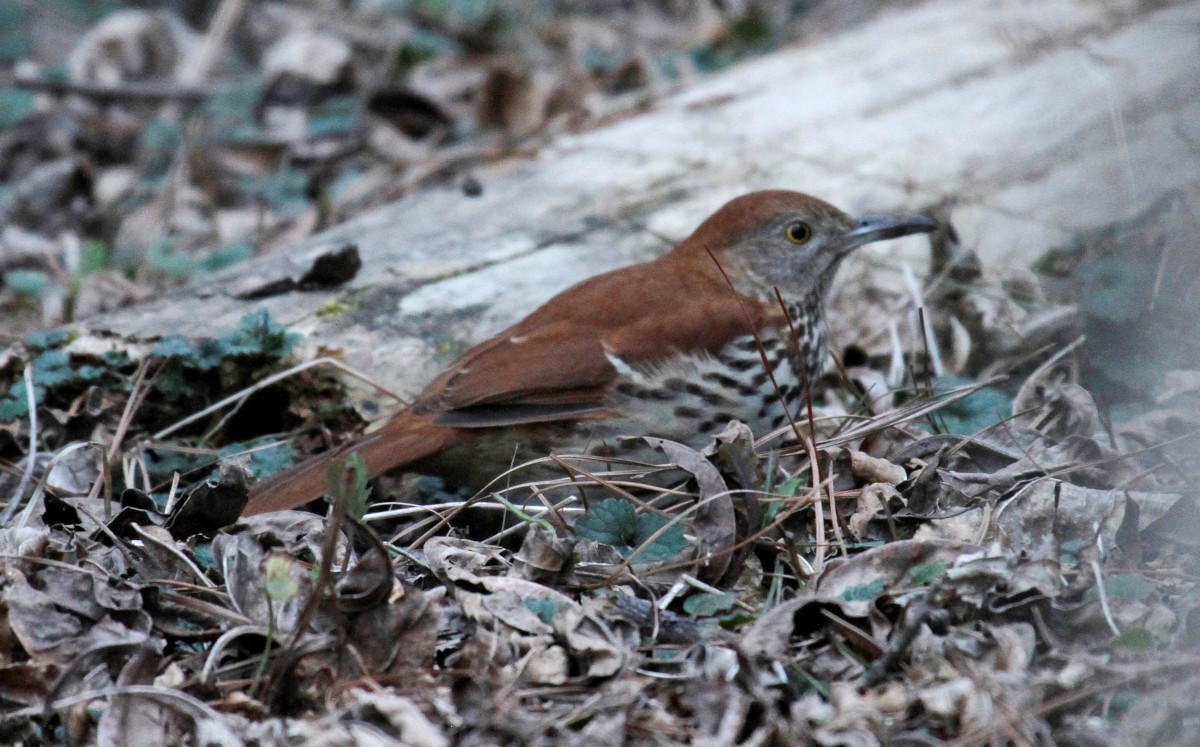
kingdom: Animalia
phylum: Chordata
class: Aves
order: Passeriformes
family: Mimidae
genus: Toxostoma
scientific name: Toxostoma rufum
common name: Brown thrasher
